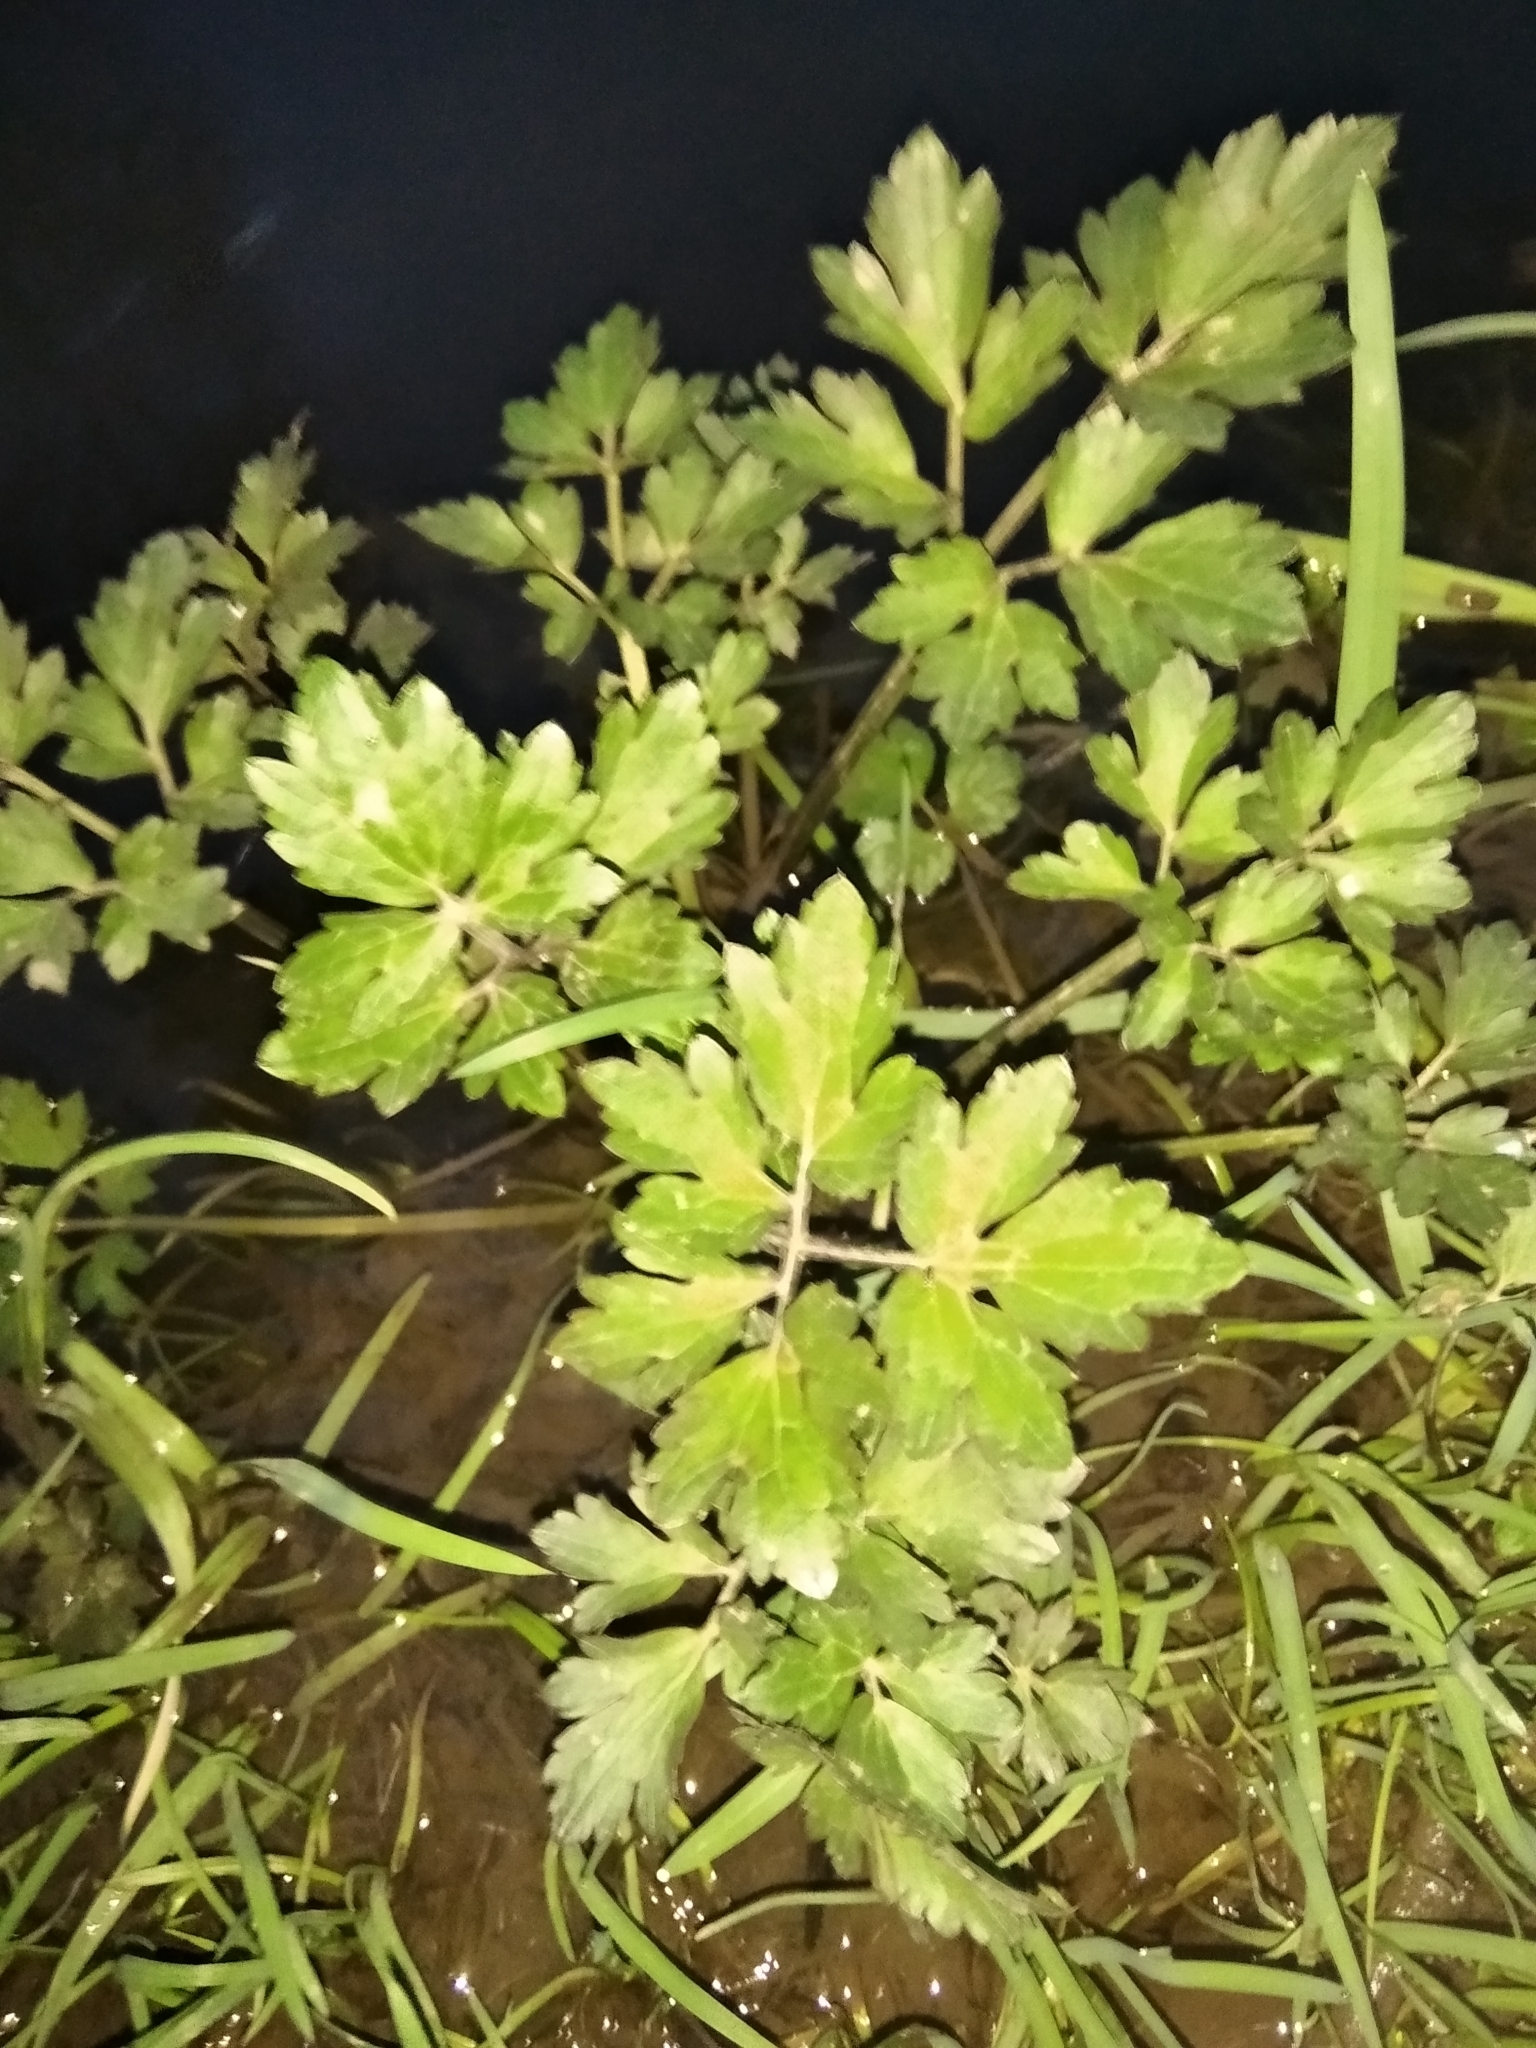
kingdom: Plantae
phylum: Tracheophyta
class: Magnoliopsida
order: Ranunculales
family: Ranunculaceae
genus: Ranunculus
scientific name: Ranunculus repens
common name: Creeping buttercup
